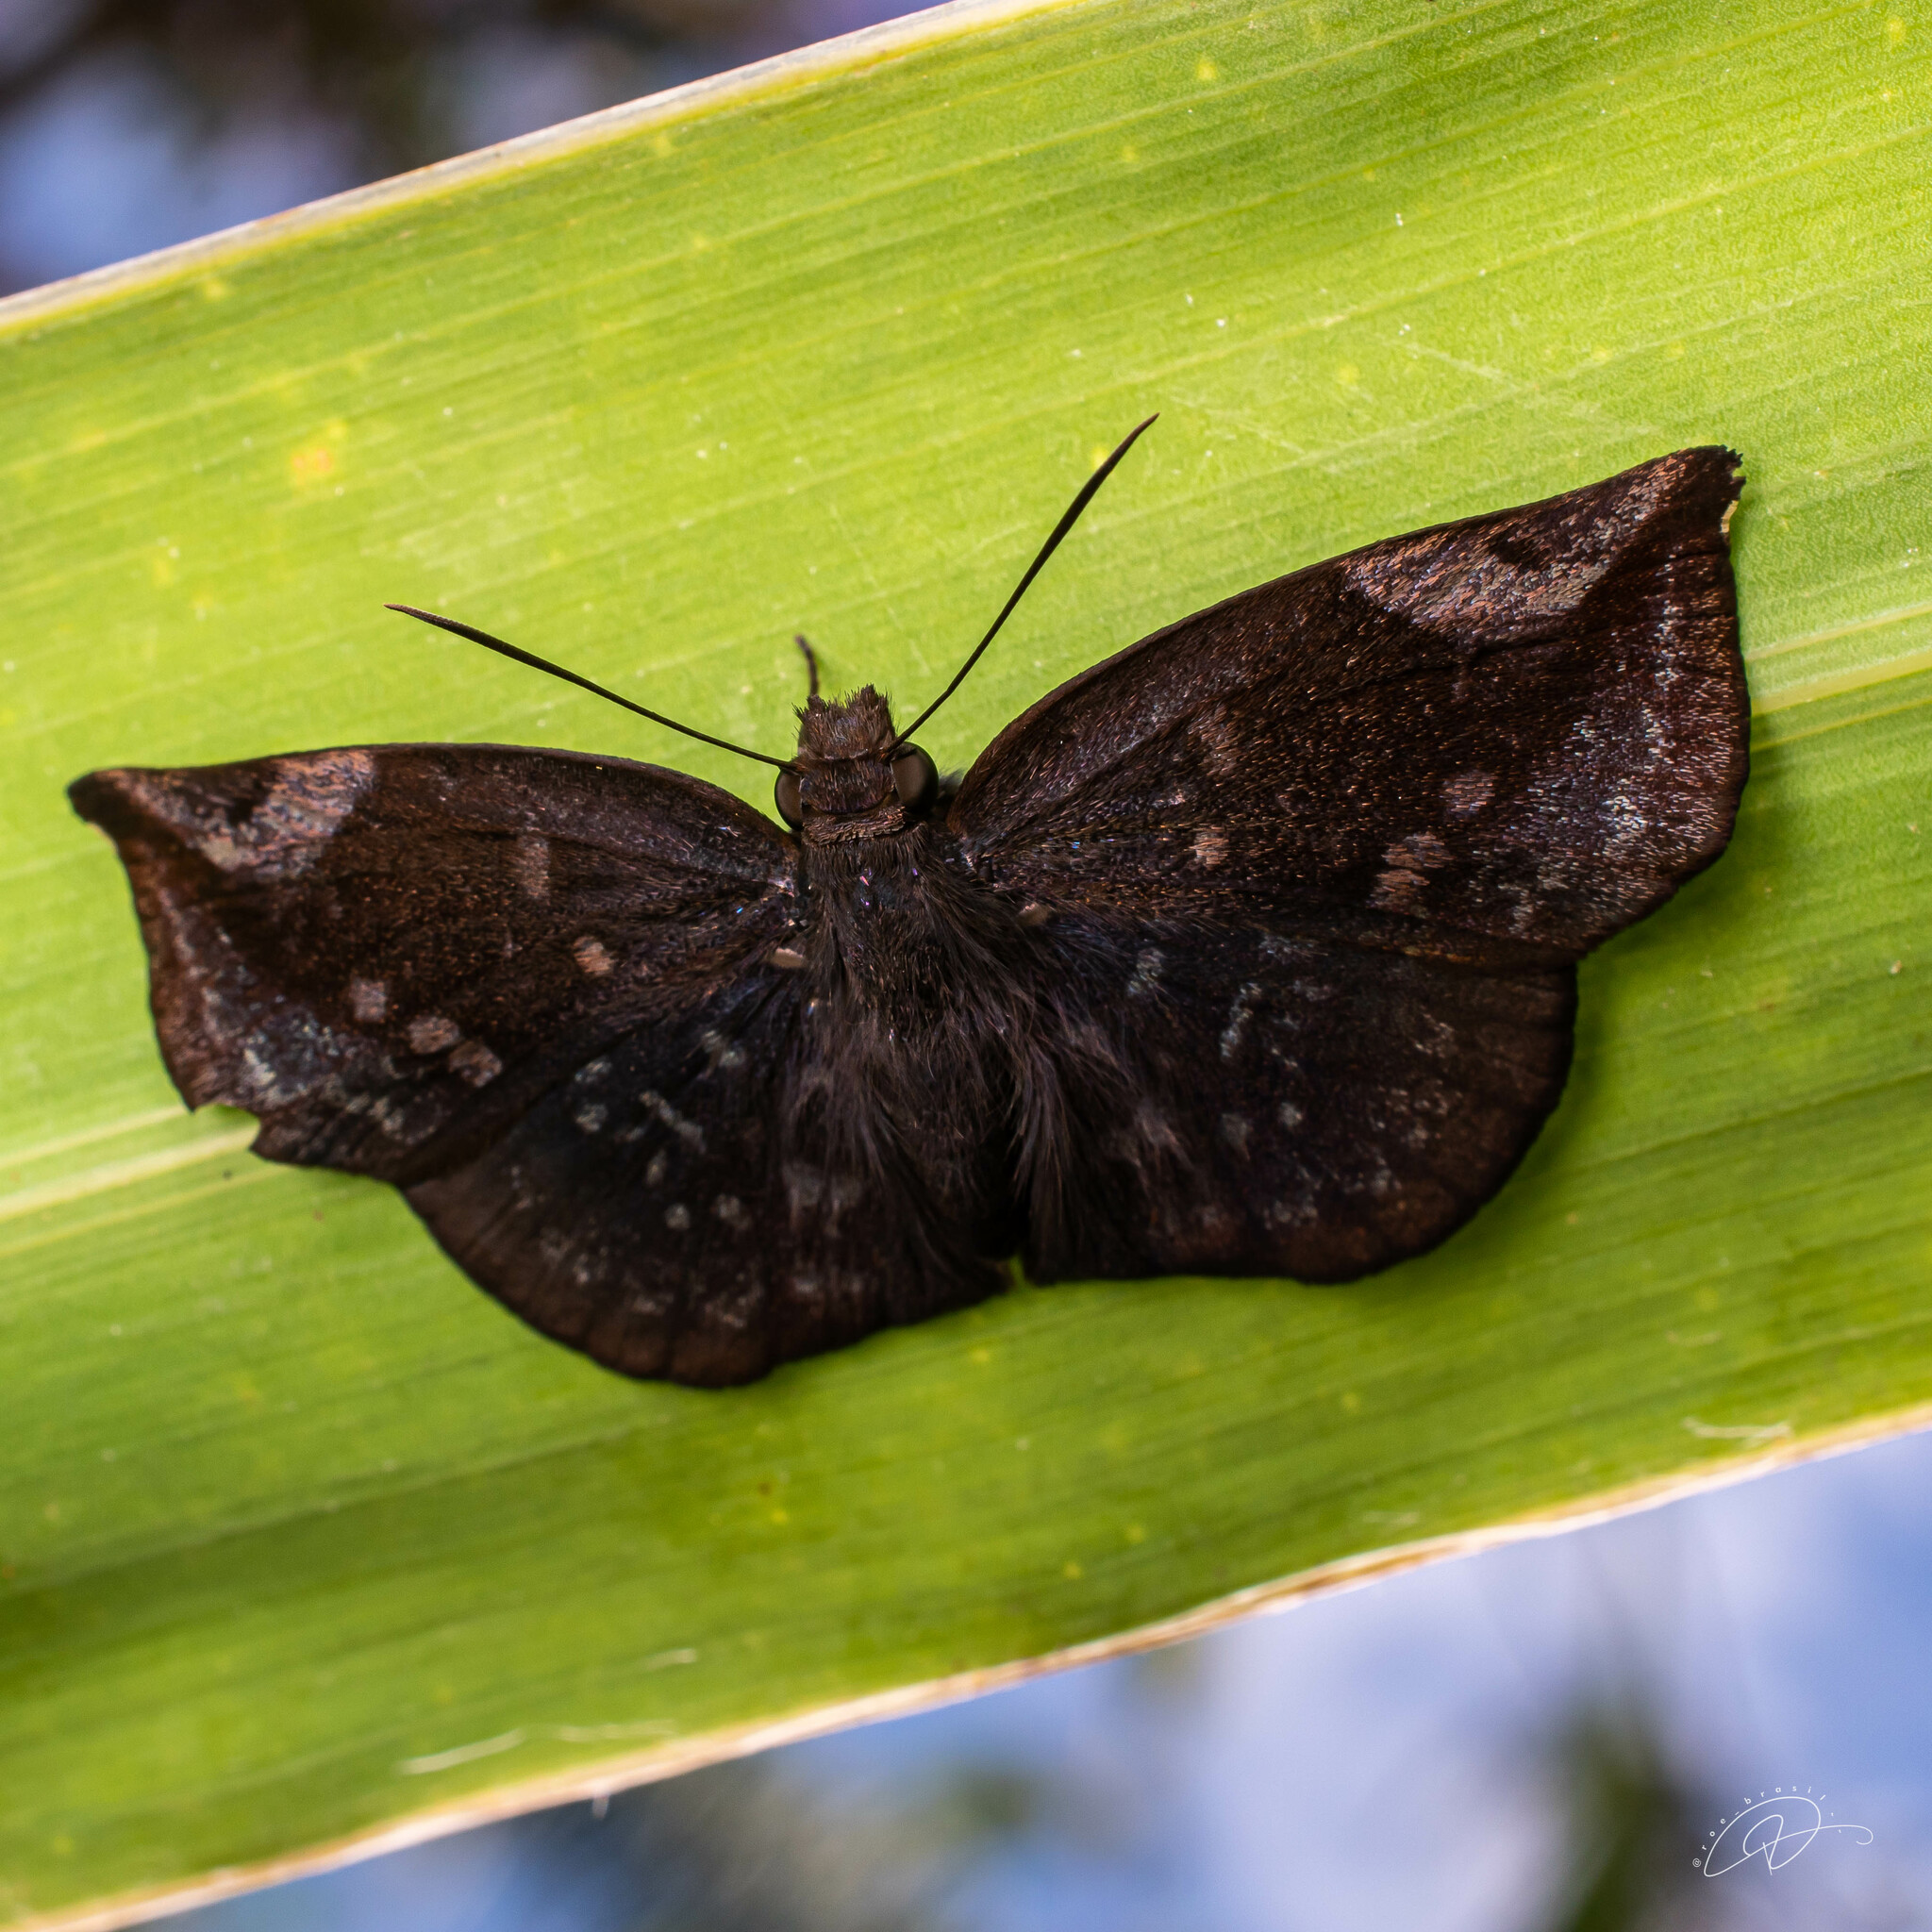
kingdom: Animalia
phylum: Arthropoda
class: Insecta
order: Lepidoptera
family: Hesperiidae
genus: Achlyodes
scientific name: Achlyodes thraso
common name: Sickle-winged skipper
